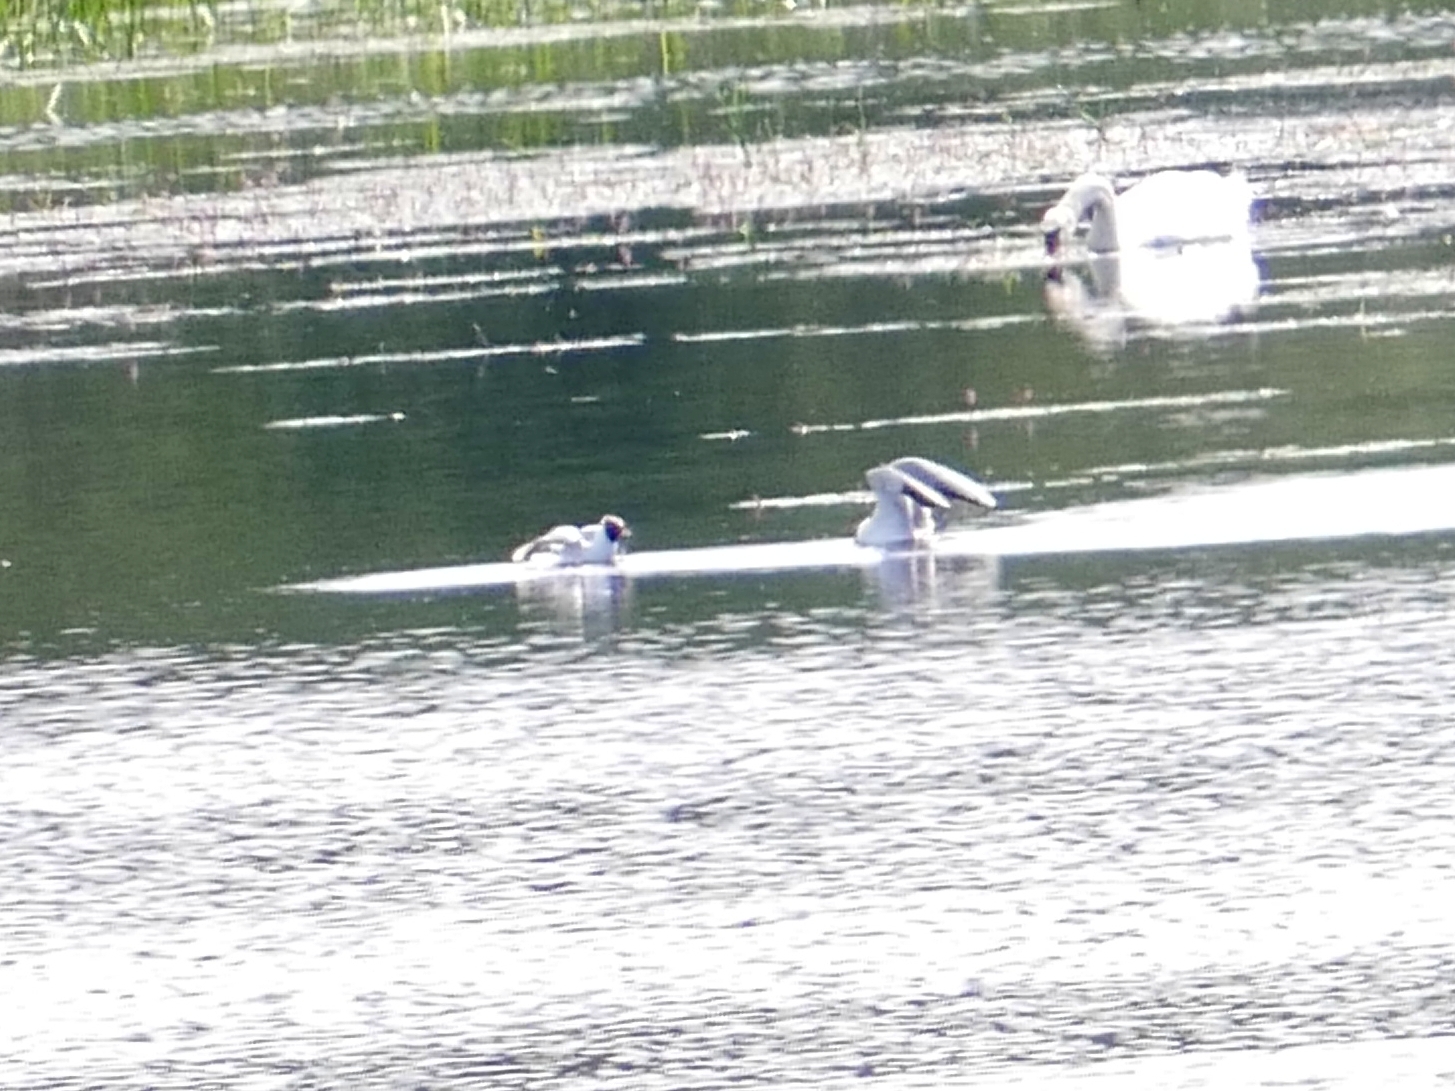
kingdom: Animalia
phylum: Chordata
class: Aves
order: Charadriiformes
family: Laridae
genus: Chroicocephalus
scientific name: Chroicocephalus ridibundus
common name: Black-headed gull
